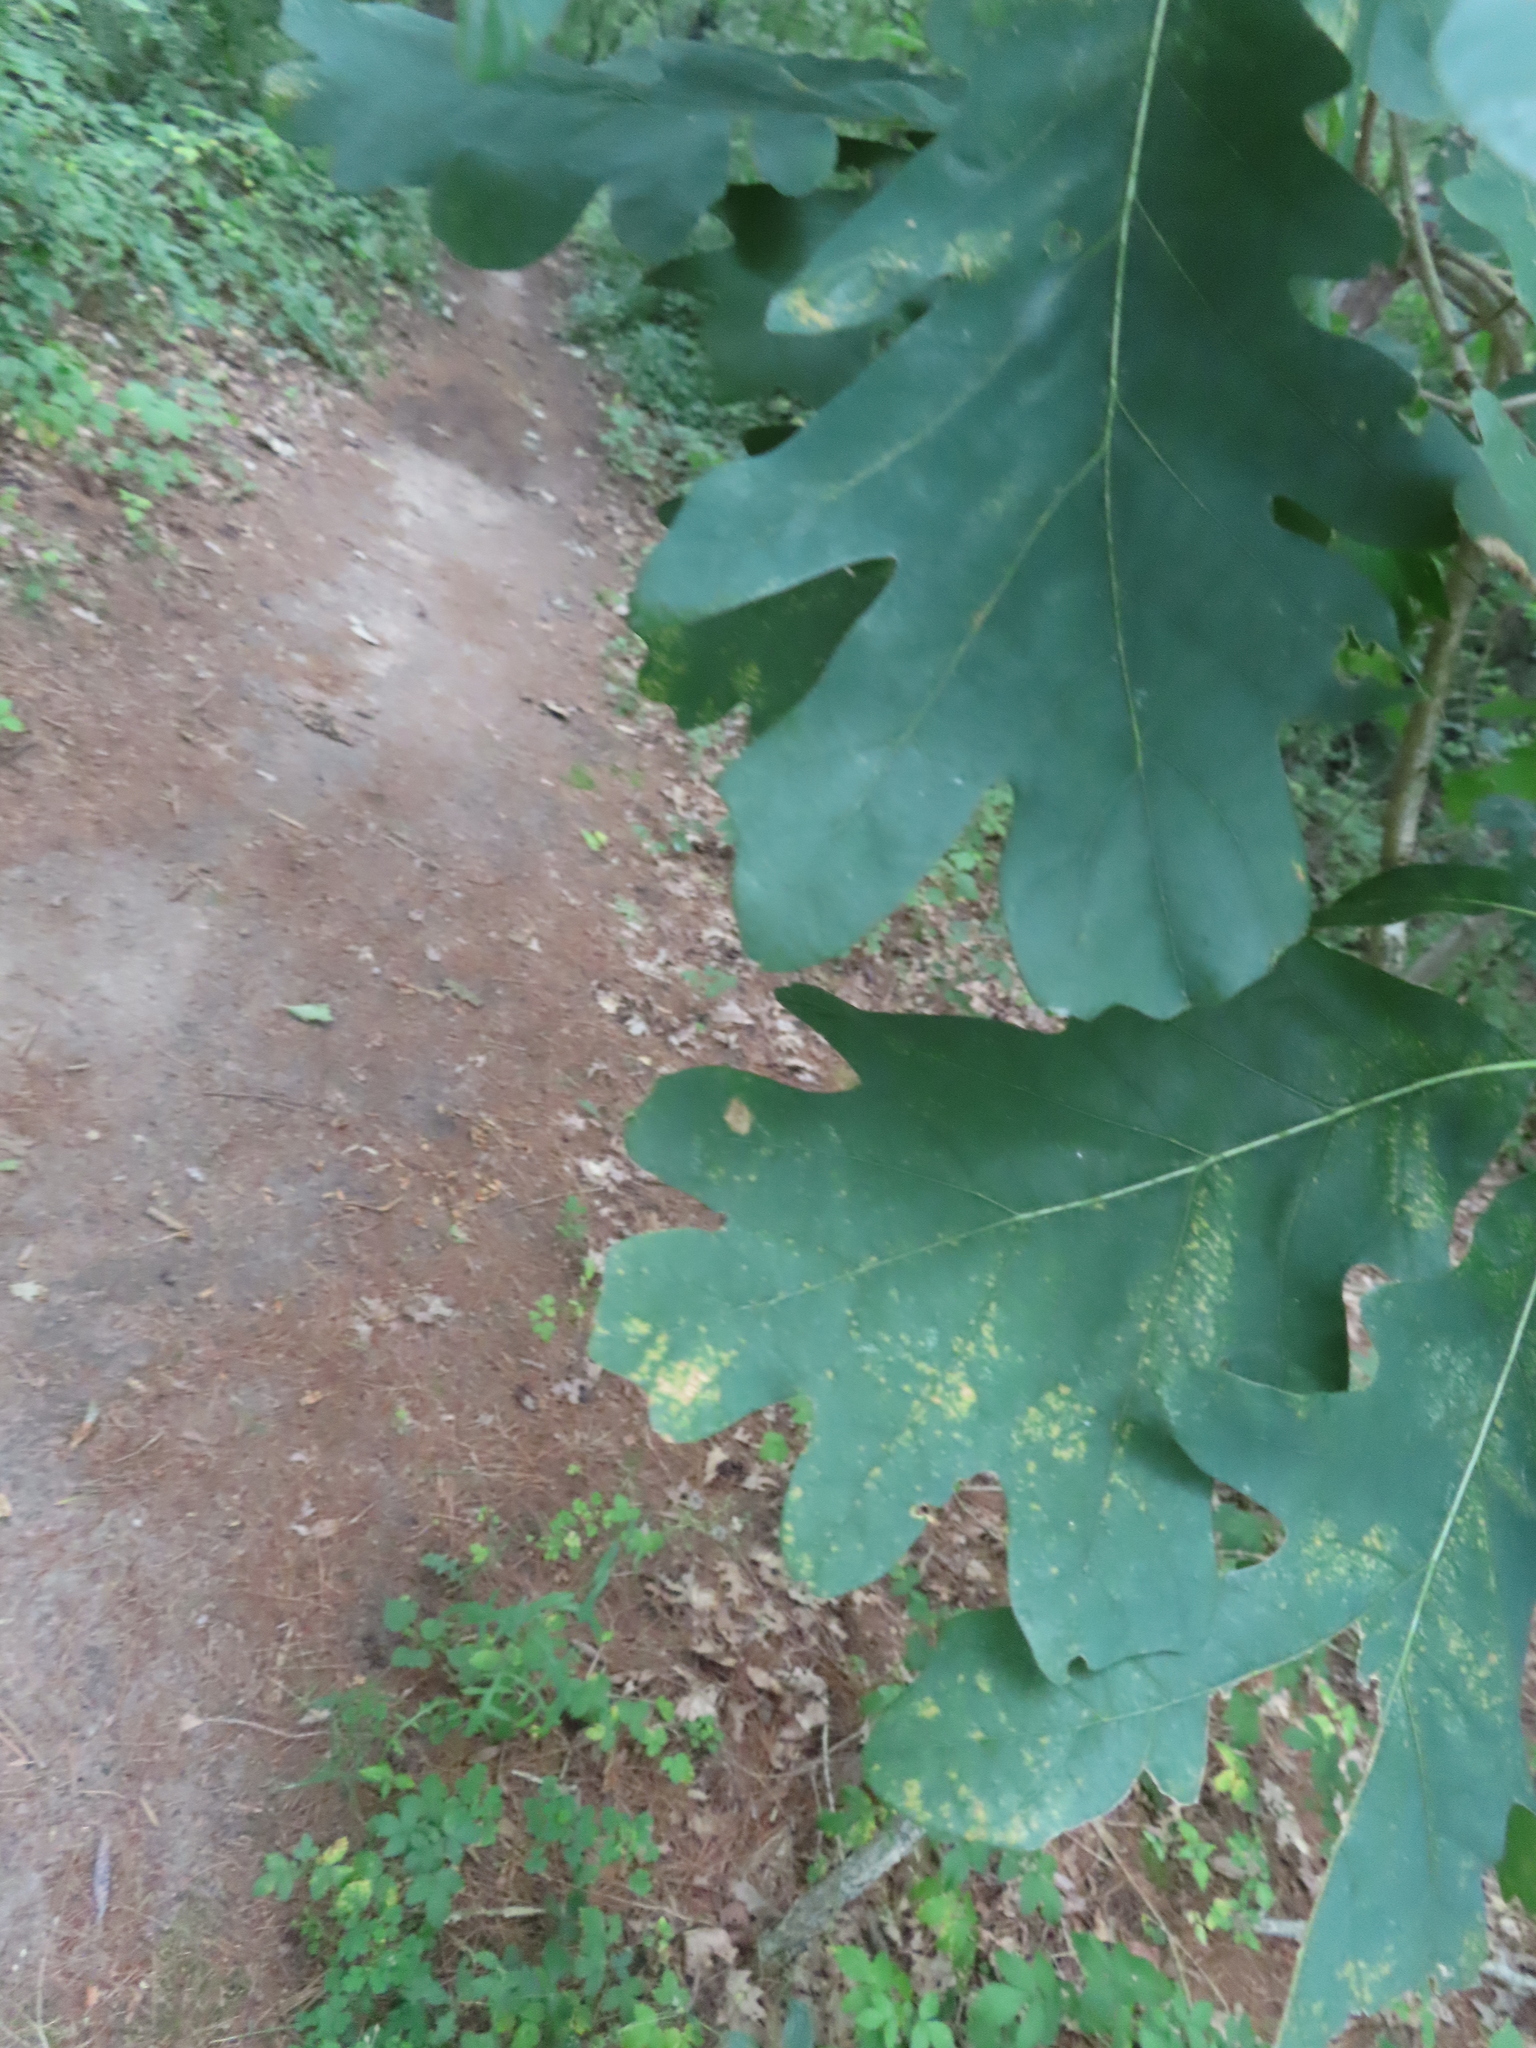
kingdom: Plantae
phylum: Tracheophyta
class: Magnoliopsida
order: Fagales
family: Fagaceae
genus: Quercus
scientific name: Quercus alba
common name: White oak
